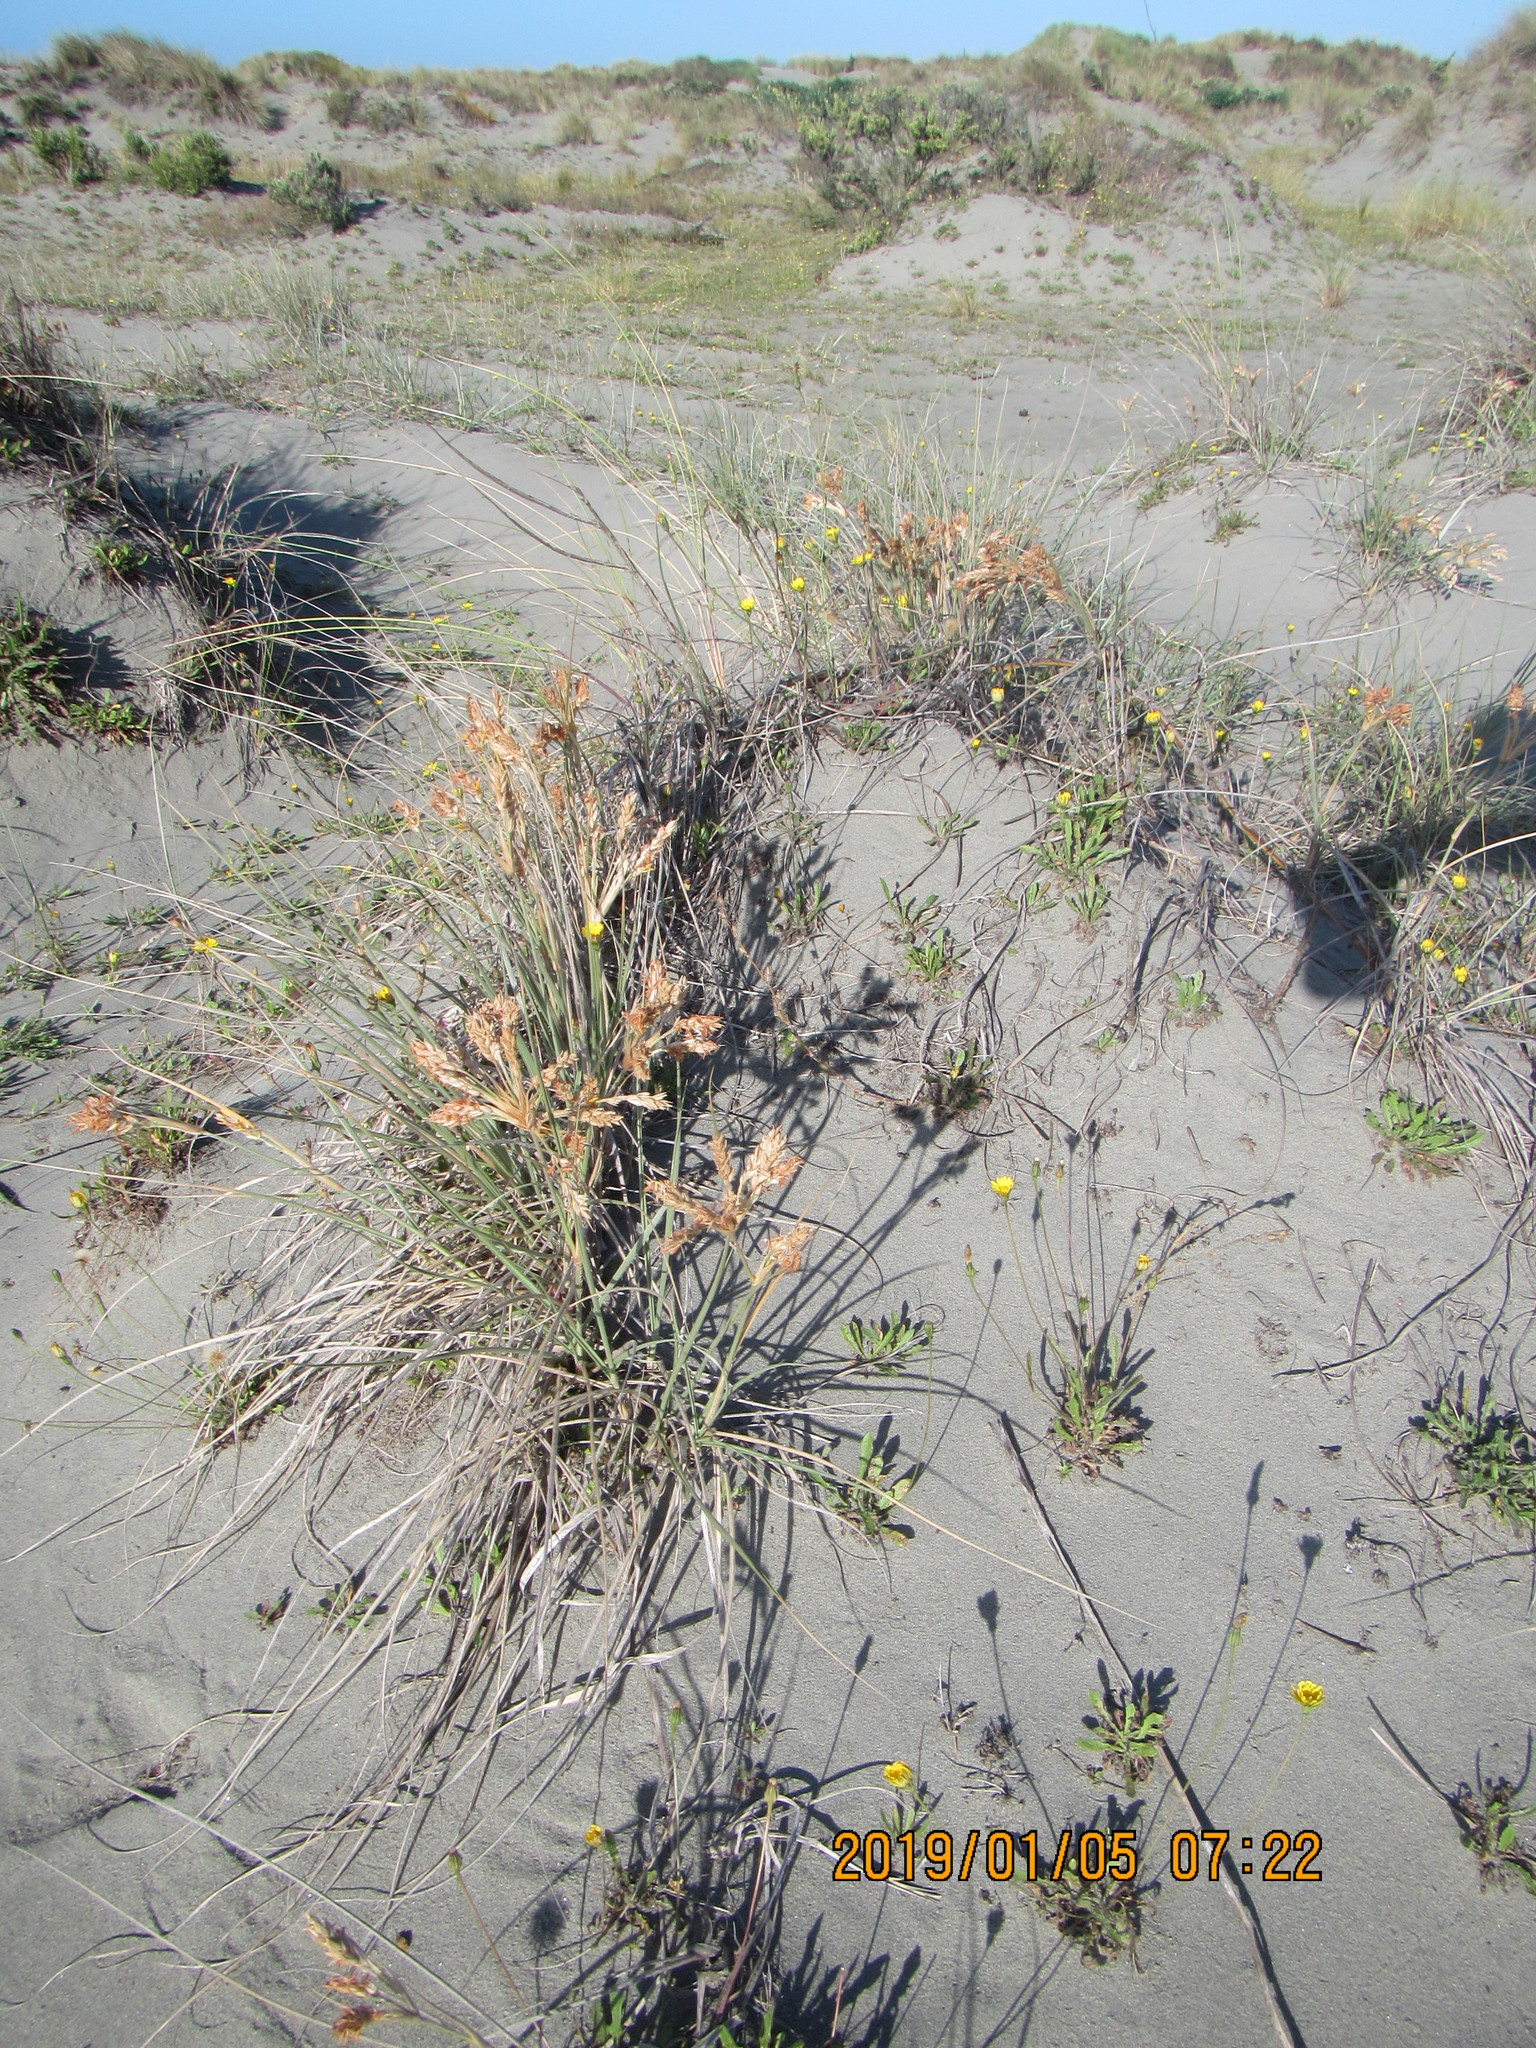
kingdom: Plantae
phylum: Tracheophyta
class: Liliopsida
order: Poales
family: Poaceae
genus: Spinifex
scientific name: Spinifex sericeus
